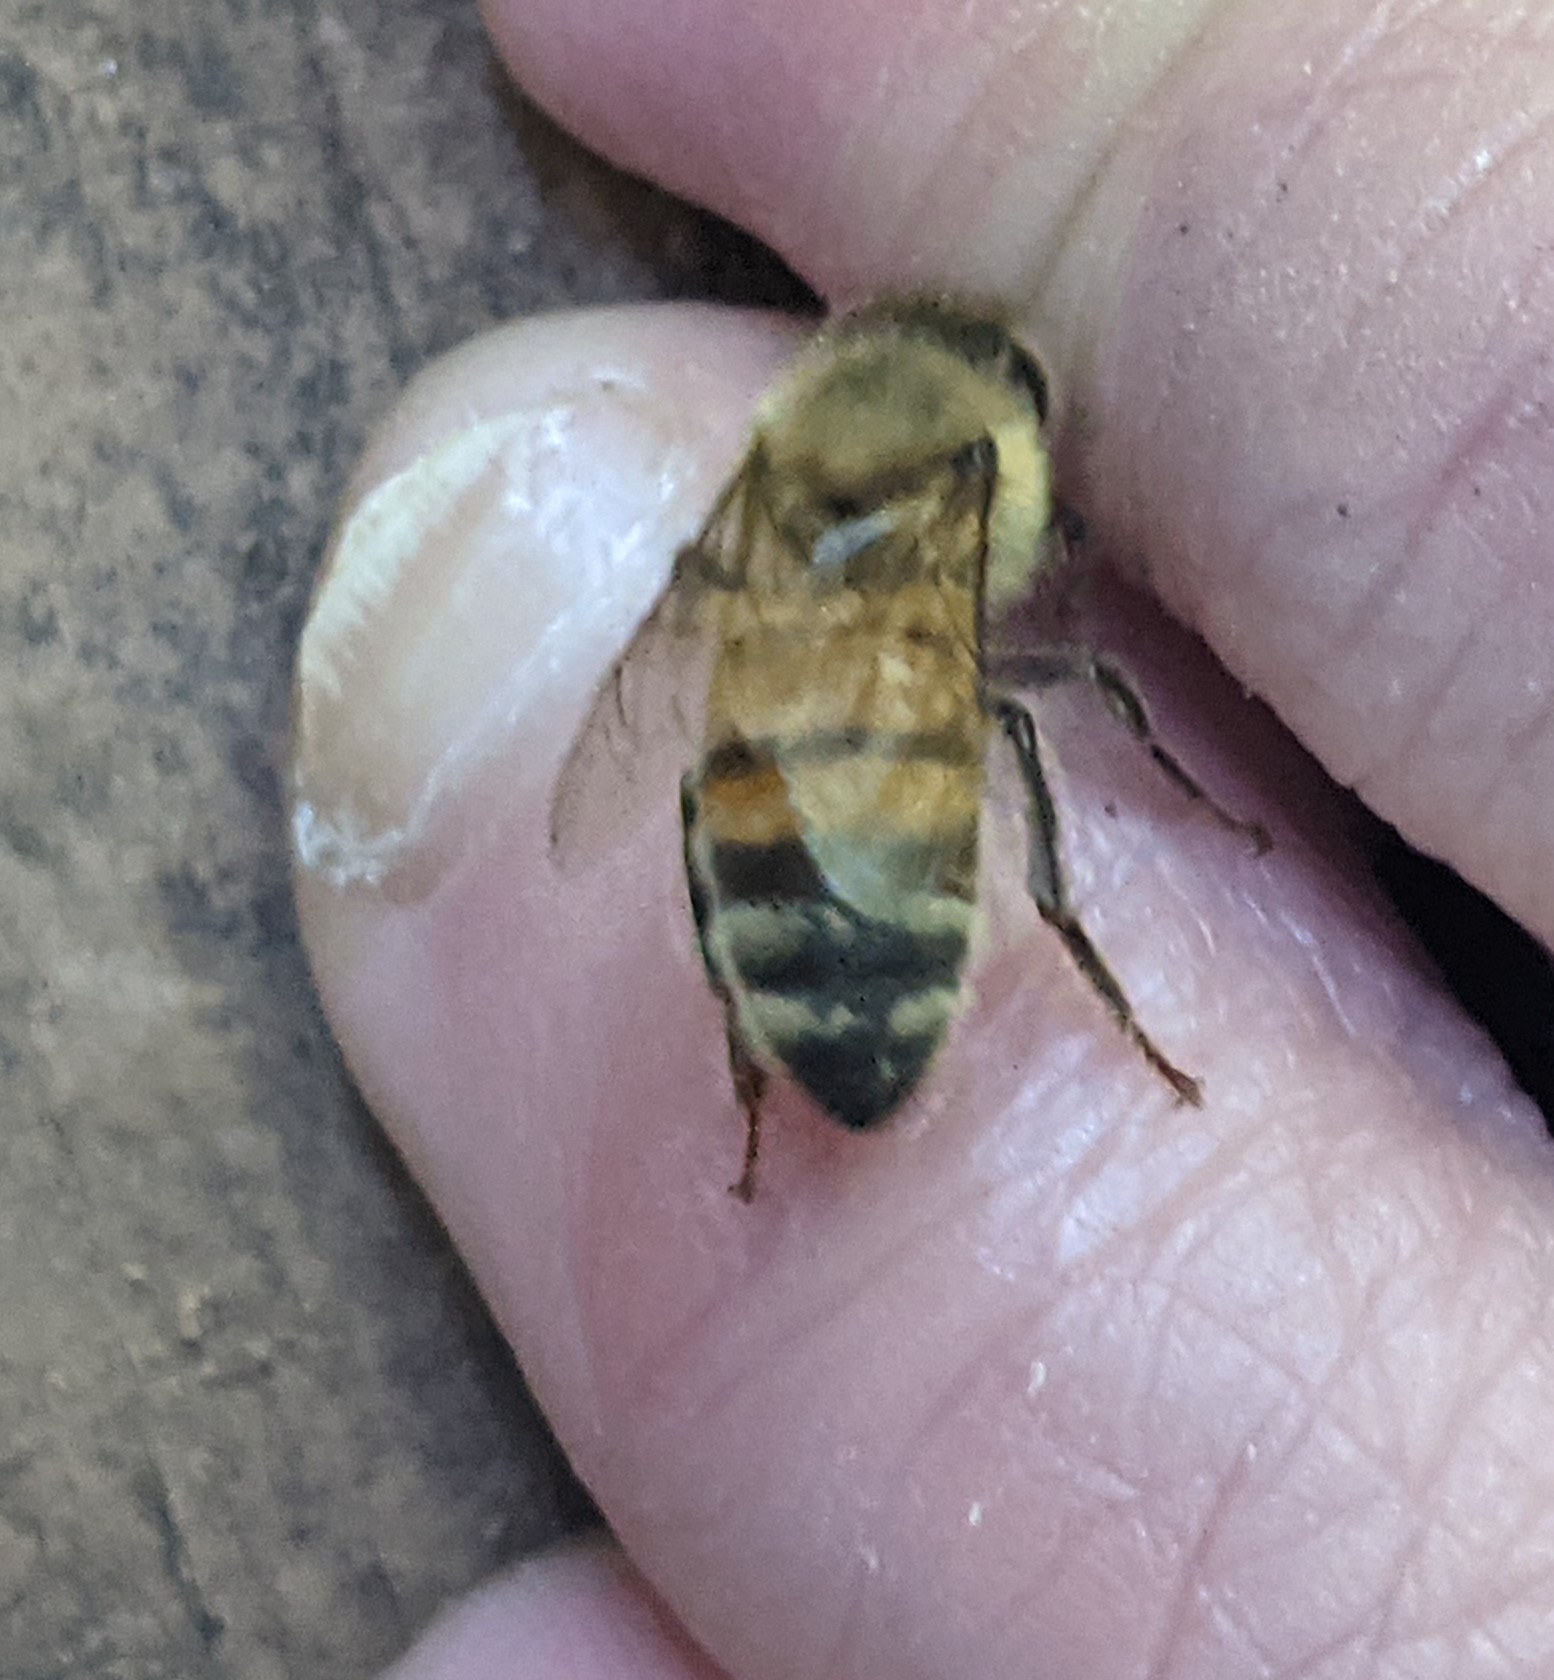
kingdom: Animalia
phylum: Arthropoda
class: Insecta
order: Hymenoptera
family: Apidae
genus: Apis
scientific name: Apis mellifera
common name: Honey bee
